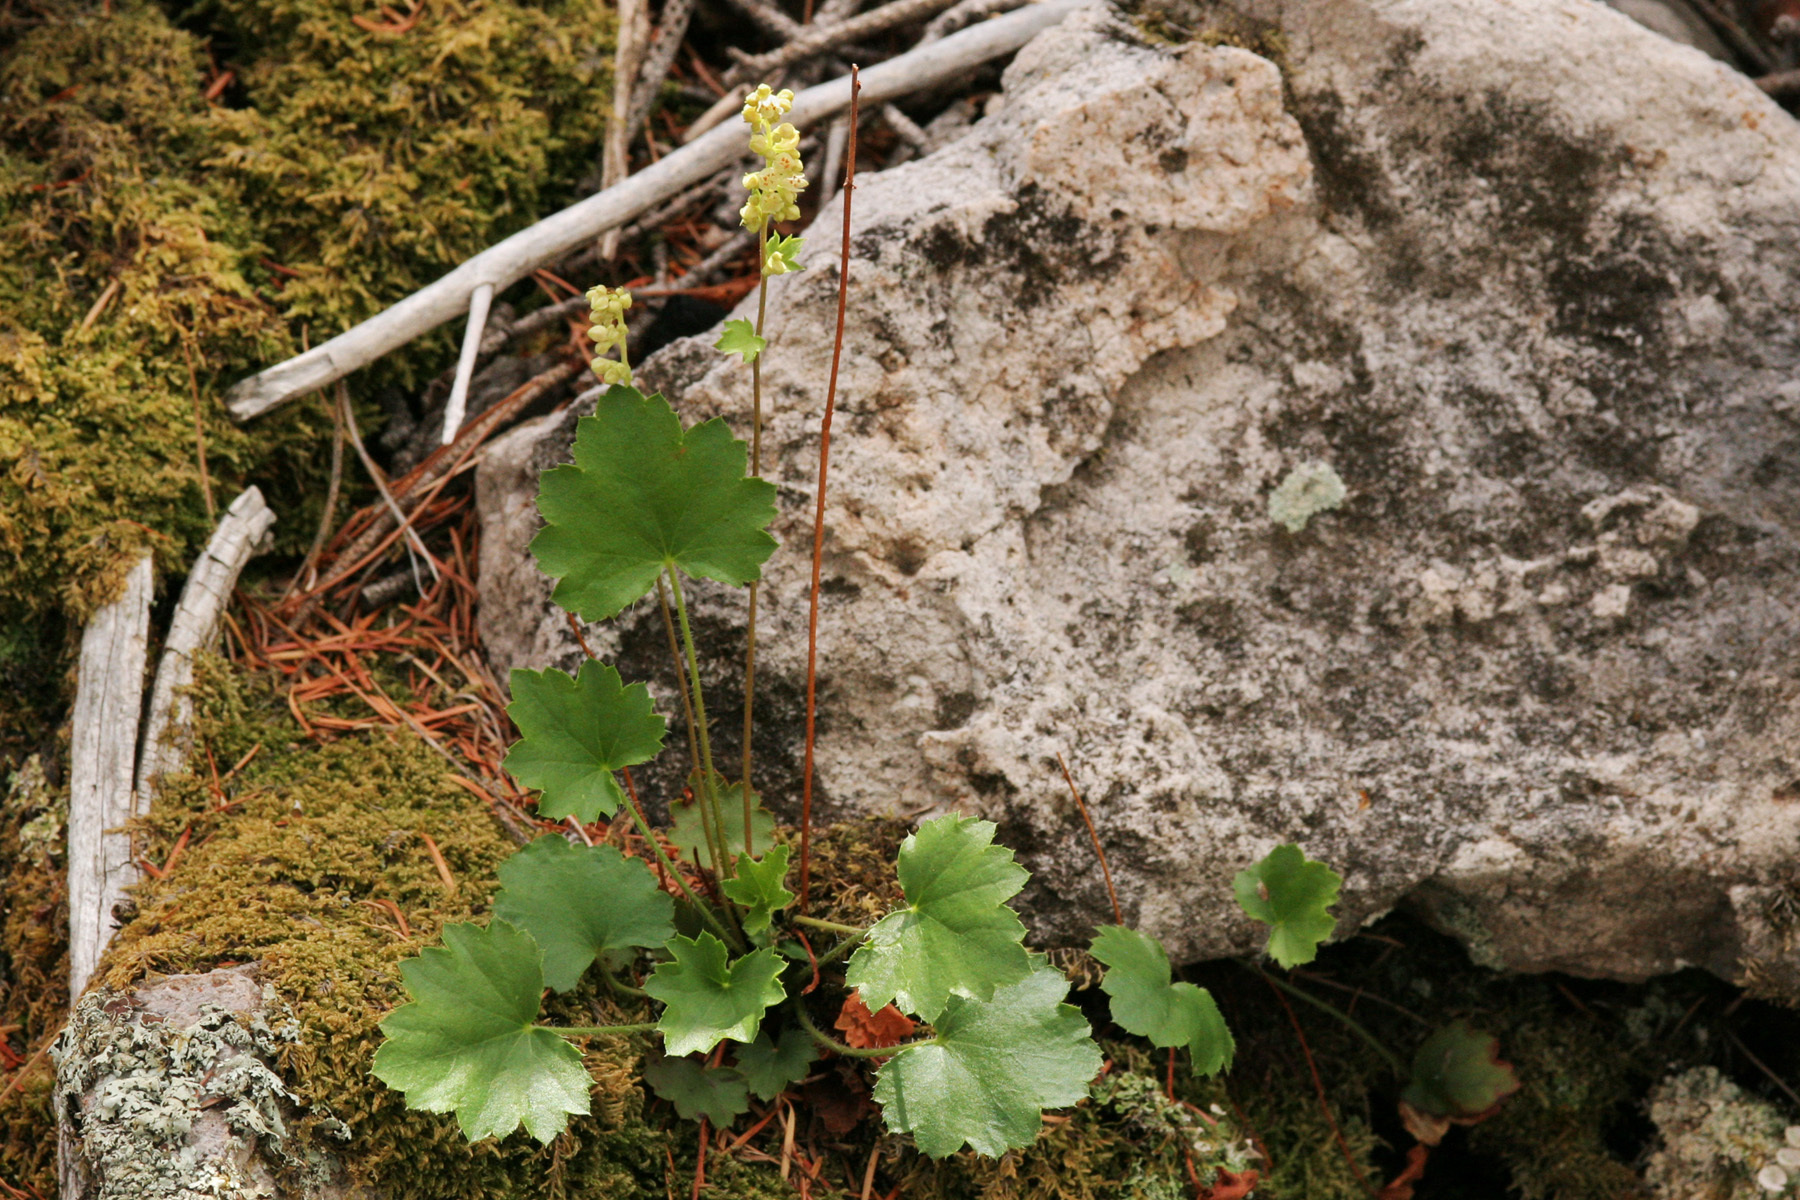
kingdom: Plantae
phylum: Tracheophyta
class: Magnoliopsida
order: Saxifragales
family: Saxifragaceae
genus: Heuchera
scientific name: Heuchera woodsiaphila
